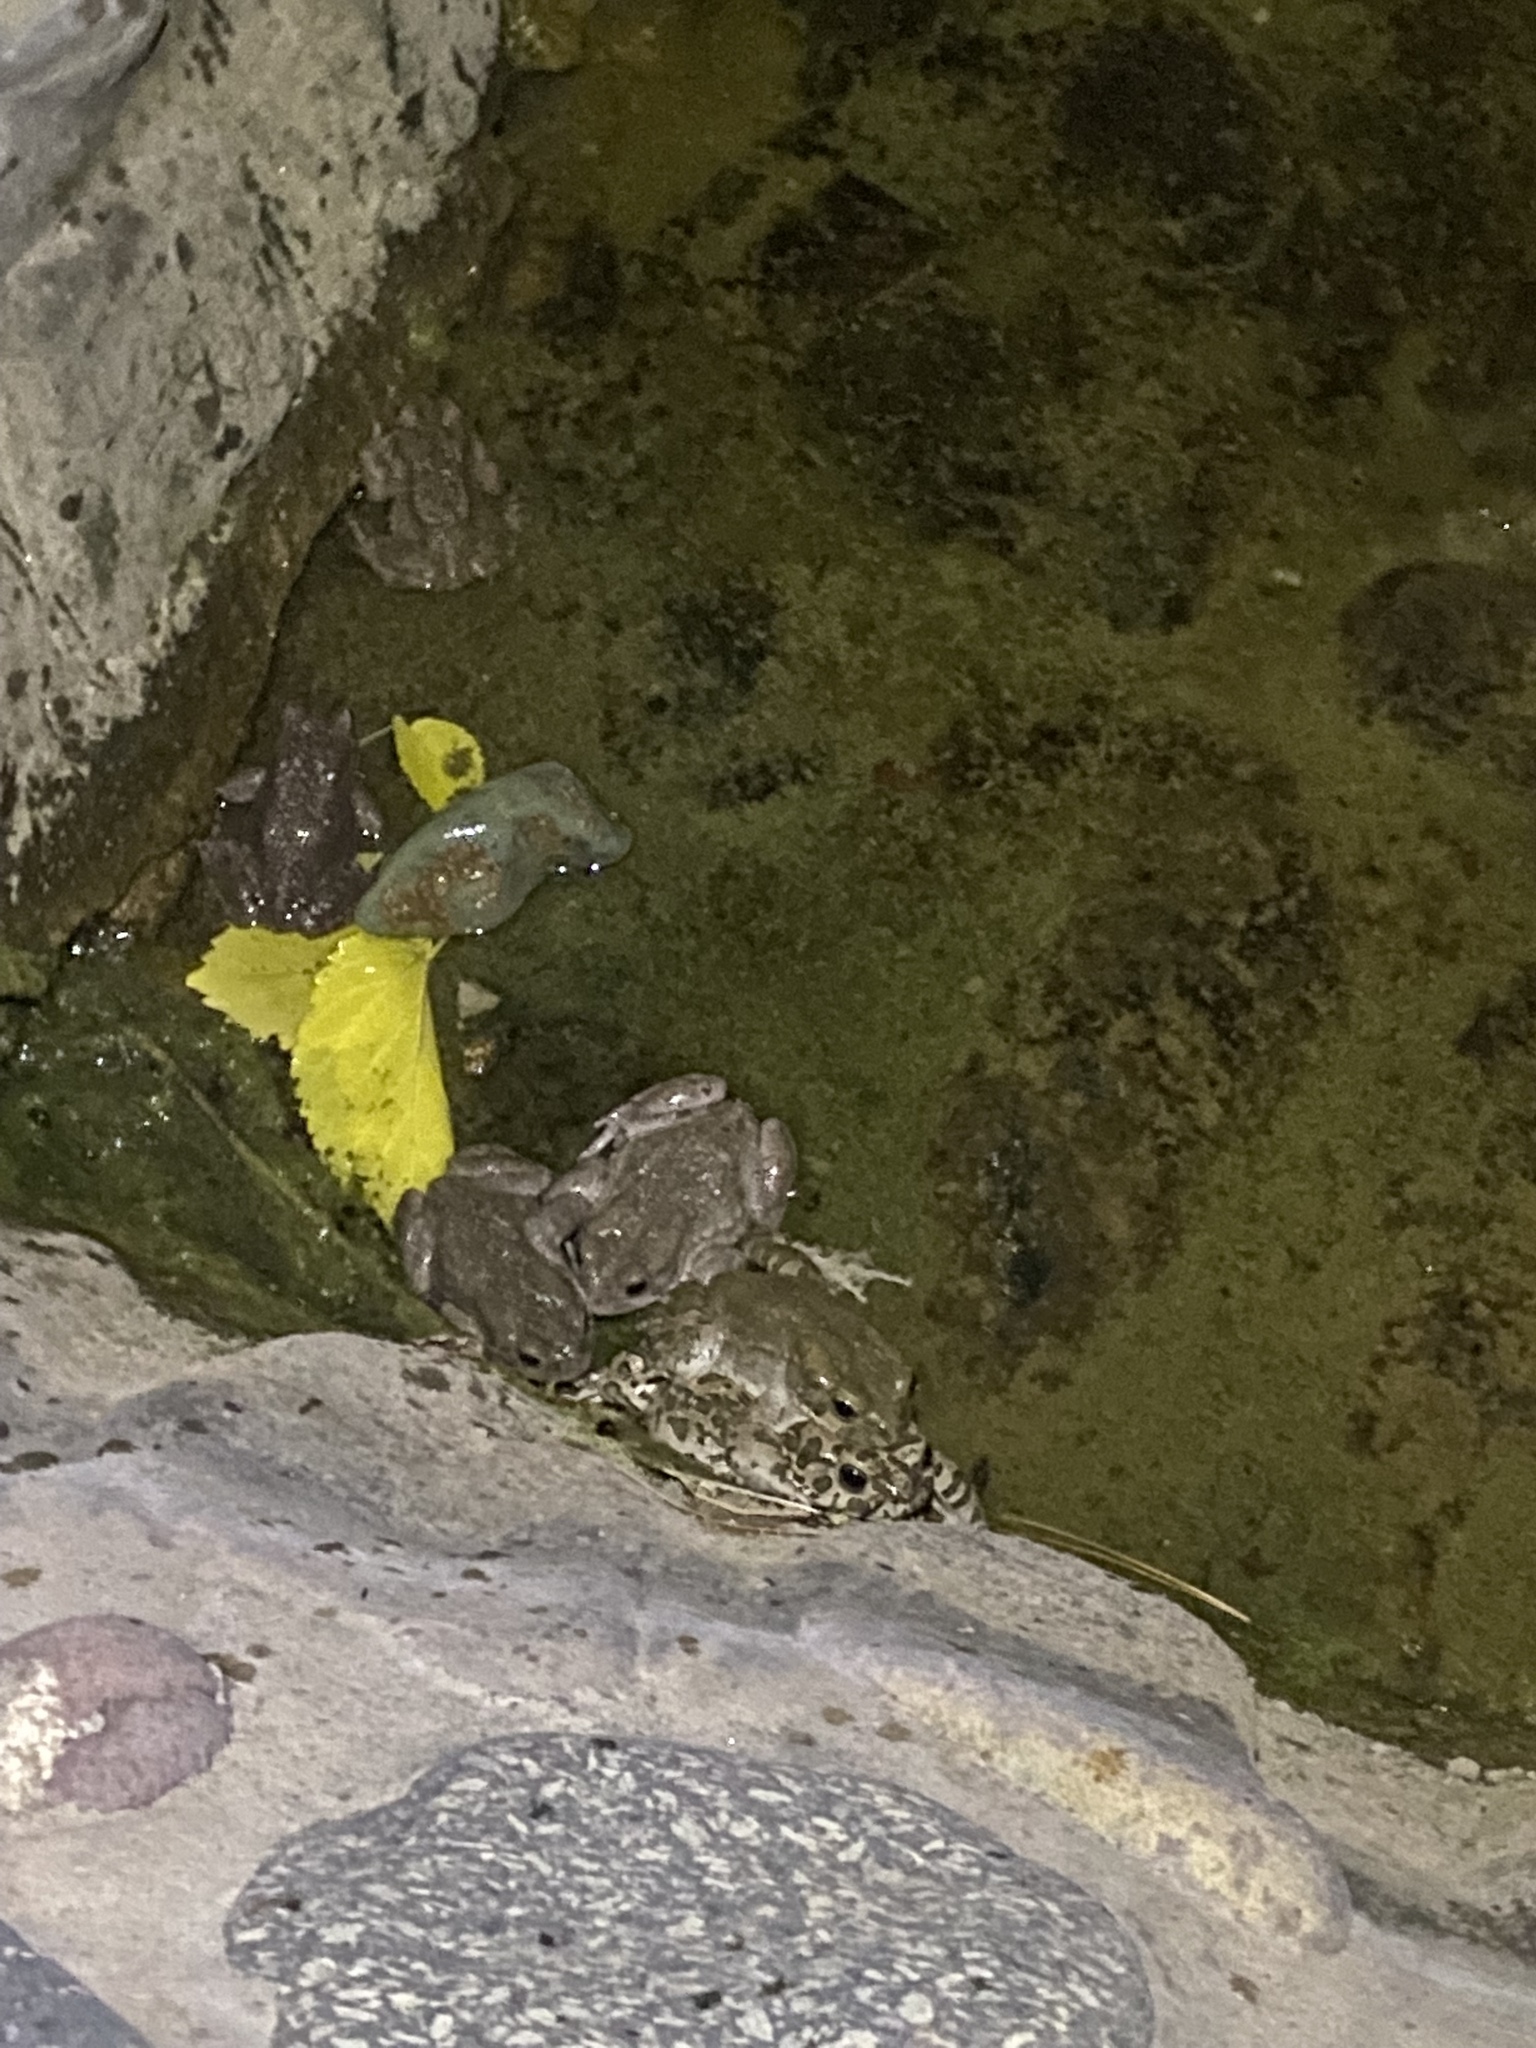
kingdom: Animalia
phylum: Chordata
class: Amphibia
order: Anura
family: Bufonidae
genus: Bufotes
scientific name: Bufotes viridis
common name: European green toad
